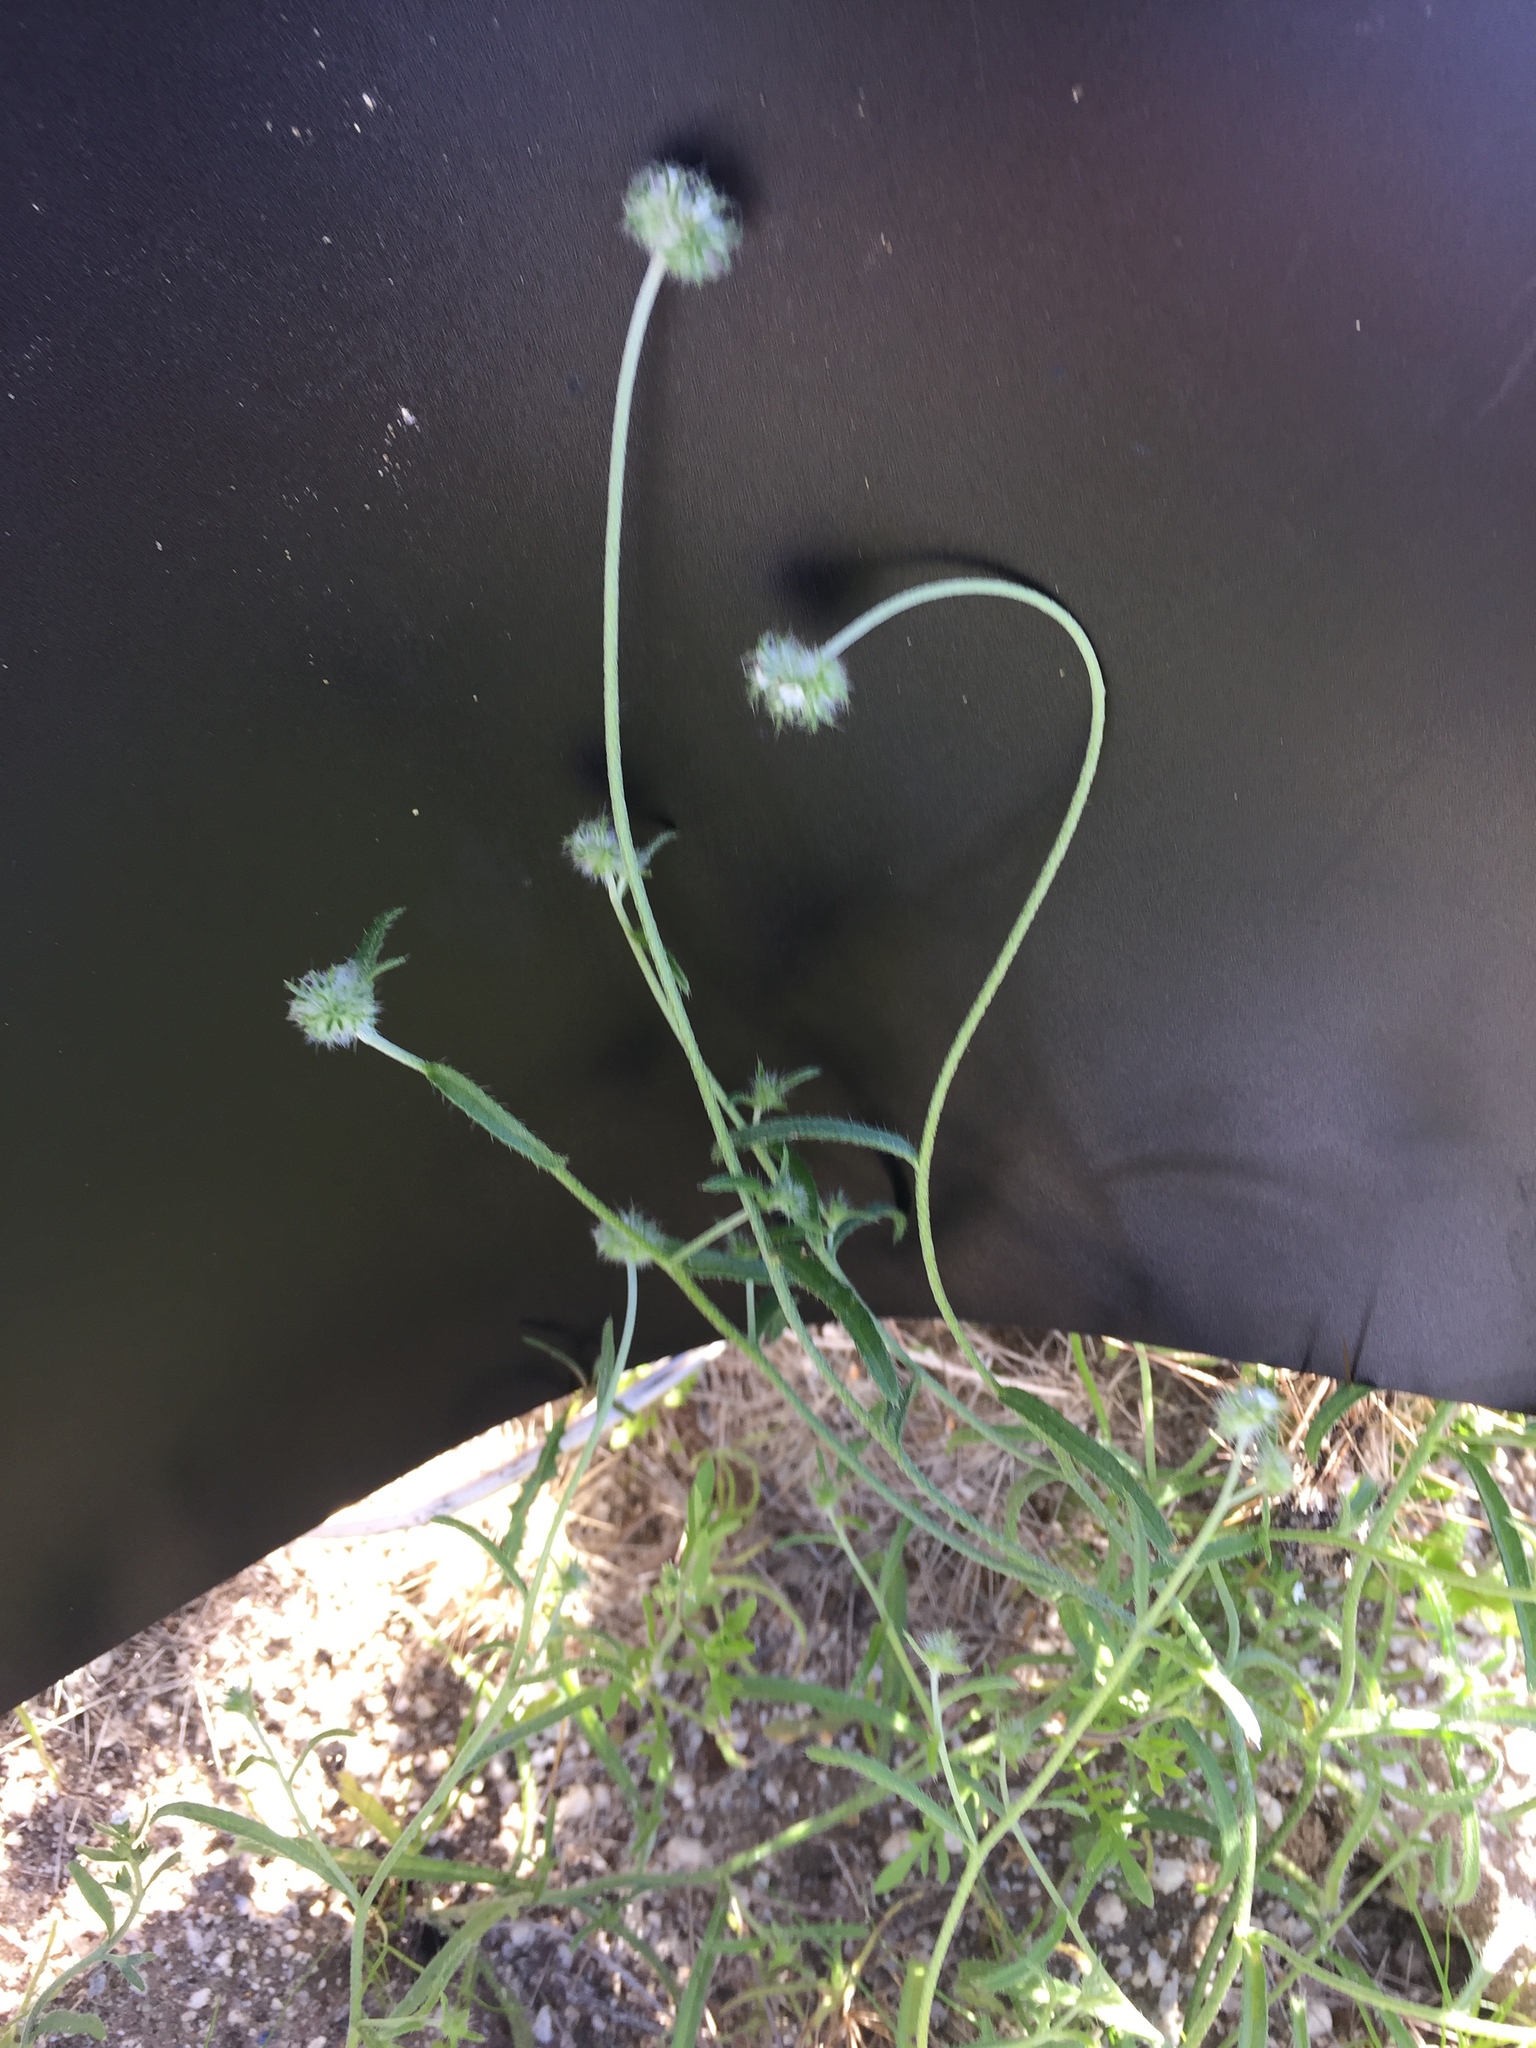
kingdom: Plantae
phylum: Tracheophyta
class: Magnoliopsida
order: Boraginales
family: Boraginaceae
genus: Cryptantha
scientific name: Cryptantha nevadensis
